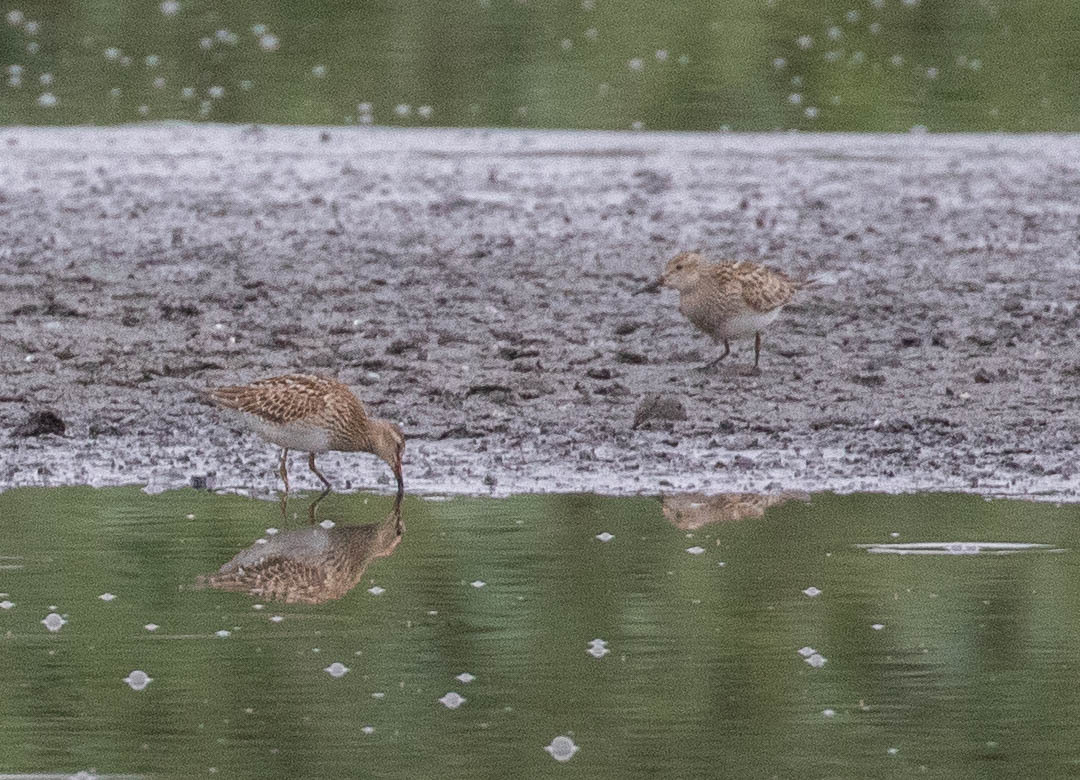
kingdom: Animalia
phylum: Chordata
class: Aves
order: Charadriiformes
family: Scolopacidae
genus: Calidris
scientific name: Calidris melanotos
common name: Pectoral sandpiper
